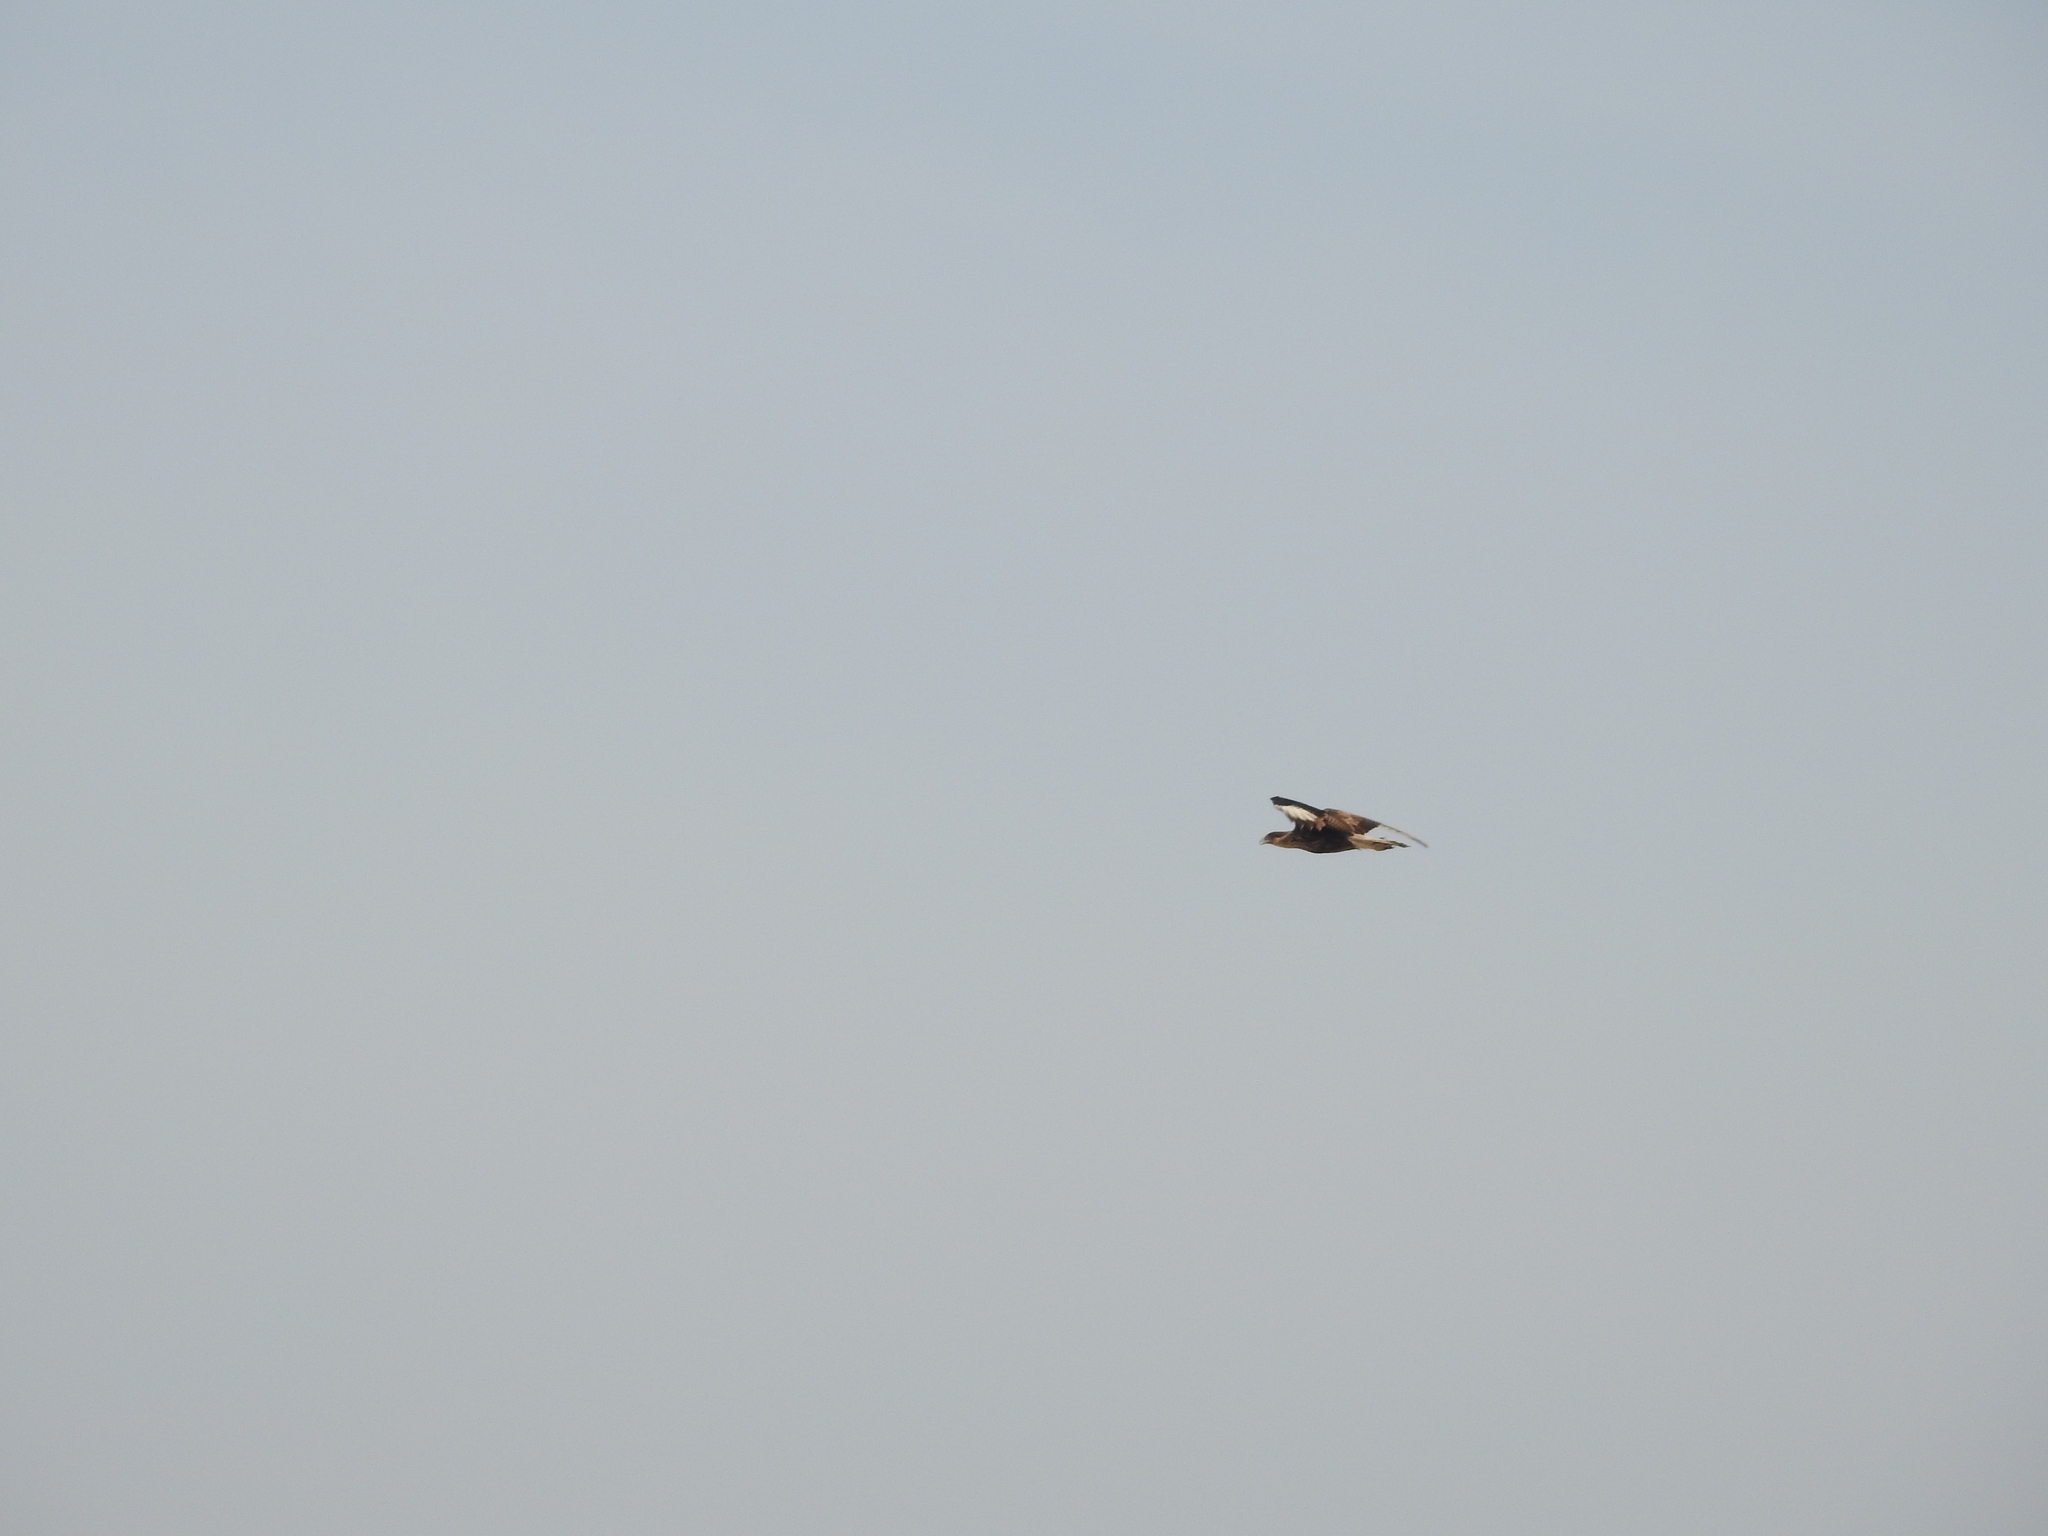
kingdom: Animalia
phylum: Chordata
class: Aves
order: Falconiformes
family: Falconidae
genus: Caracara
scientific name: Caracara plancus
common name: Southern caracara
